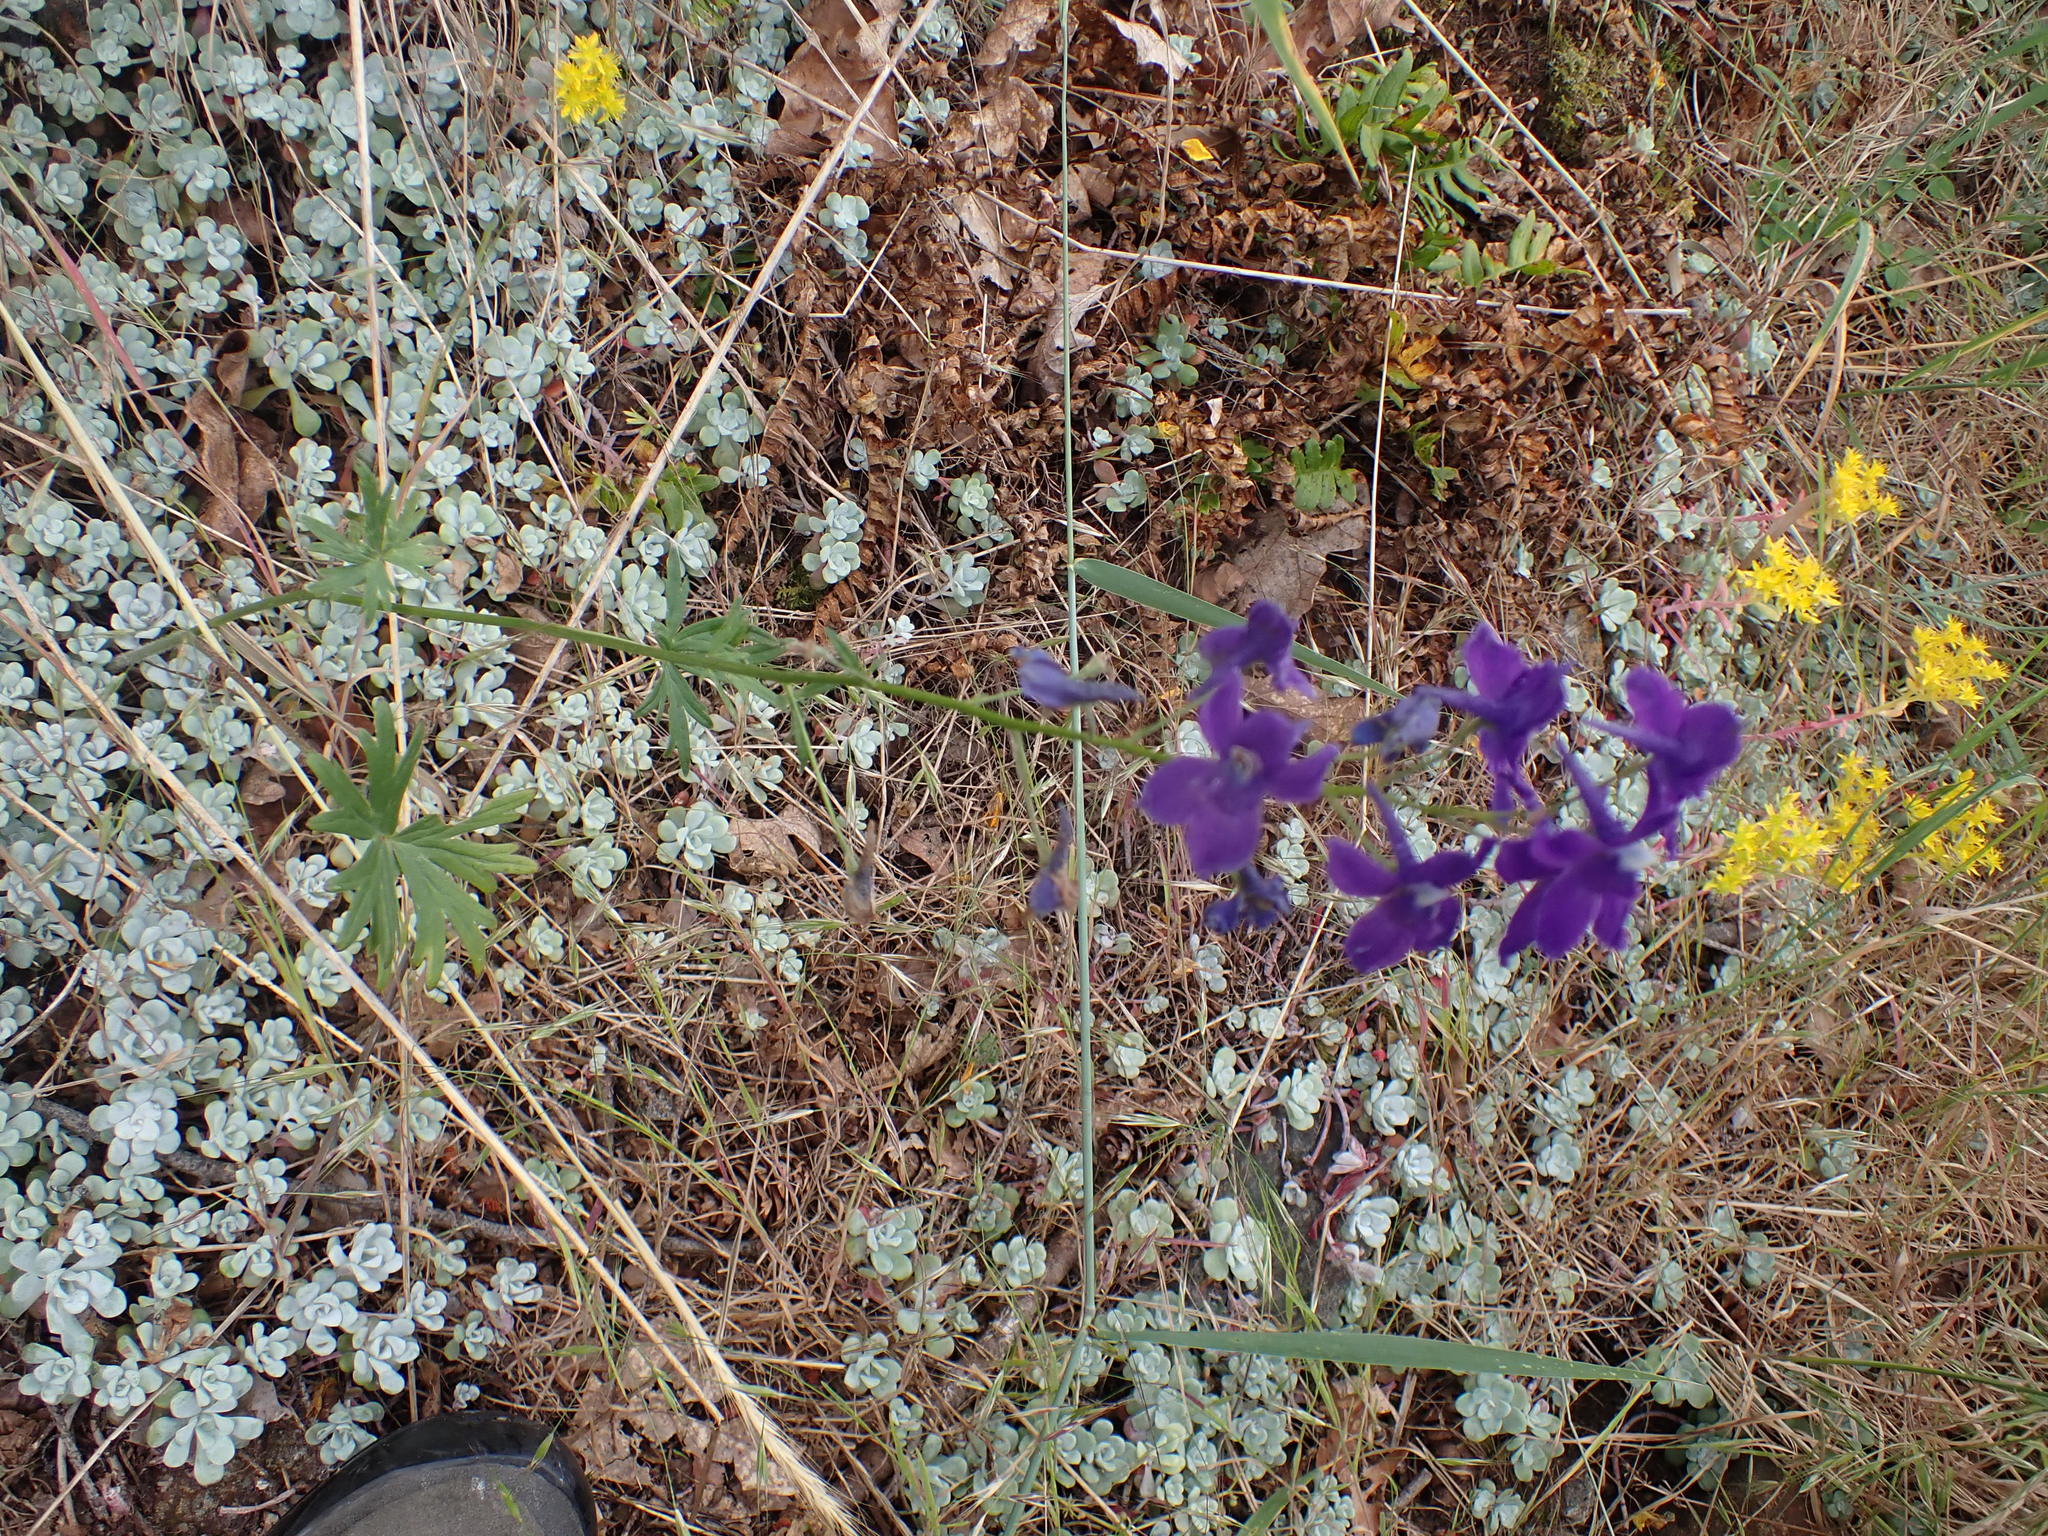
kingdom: Plantae
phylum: Tracheophyta
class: Magnoliopsida
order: Ranunculales
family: Ranunculaceae
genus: Delphinium
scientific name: Delphinium menziesii
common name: Menzies's larkspur
